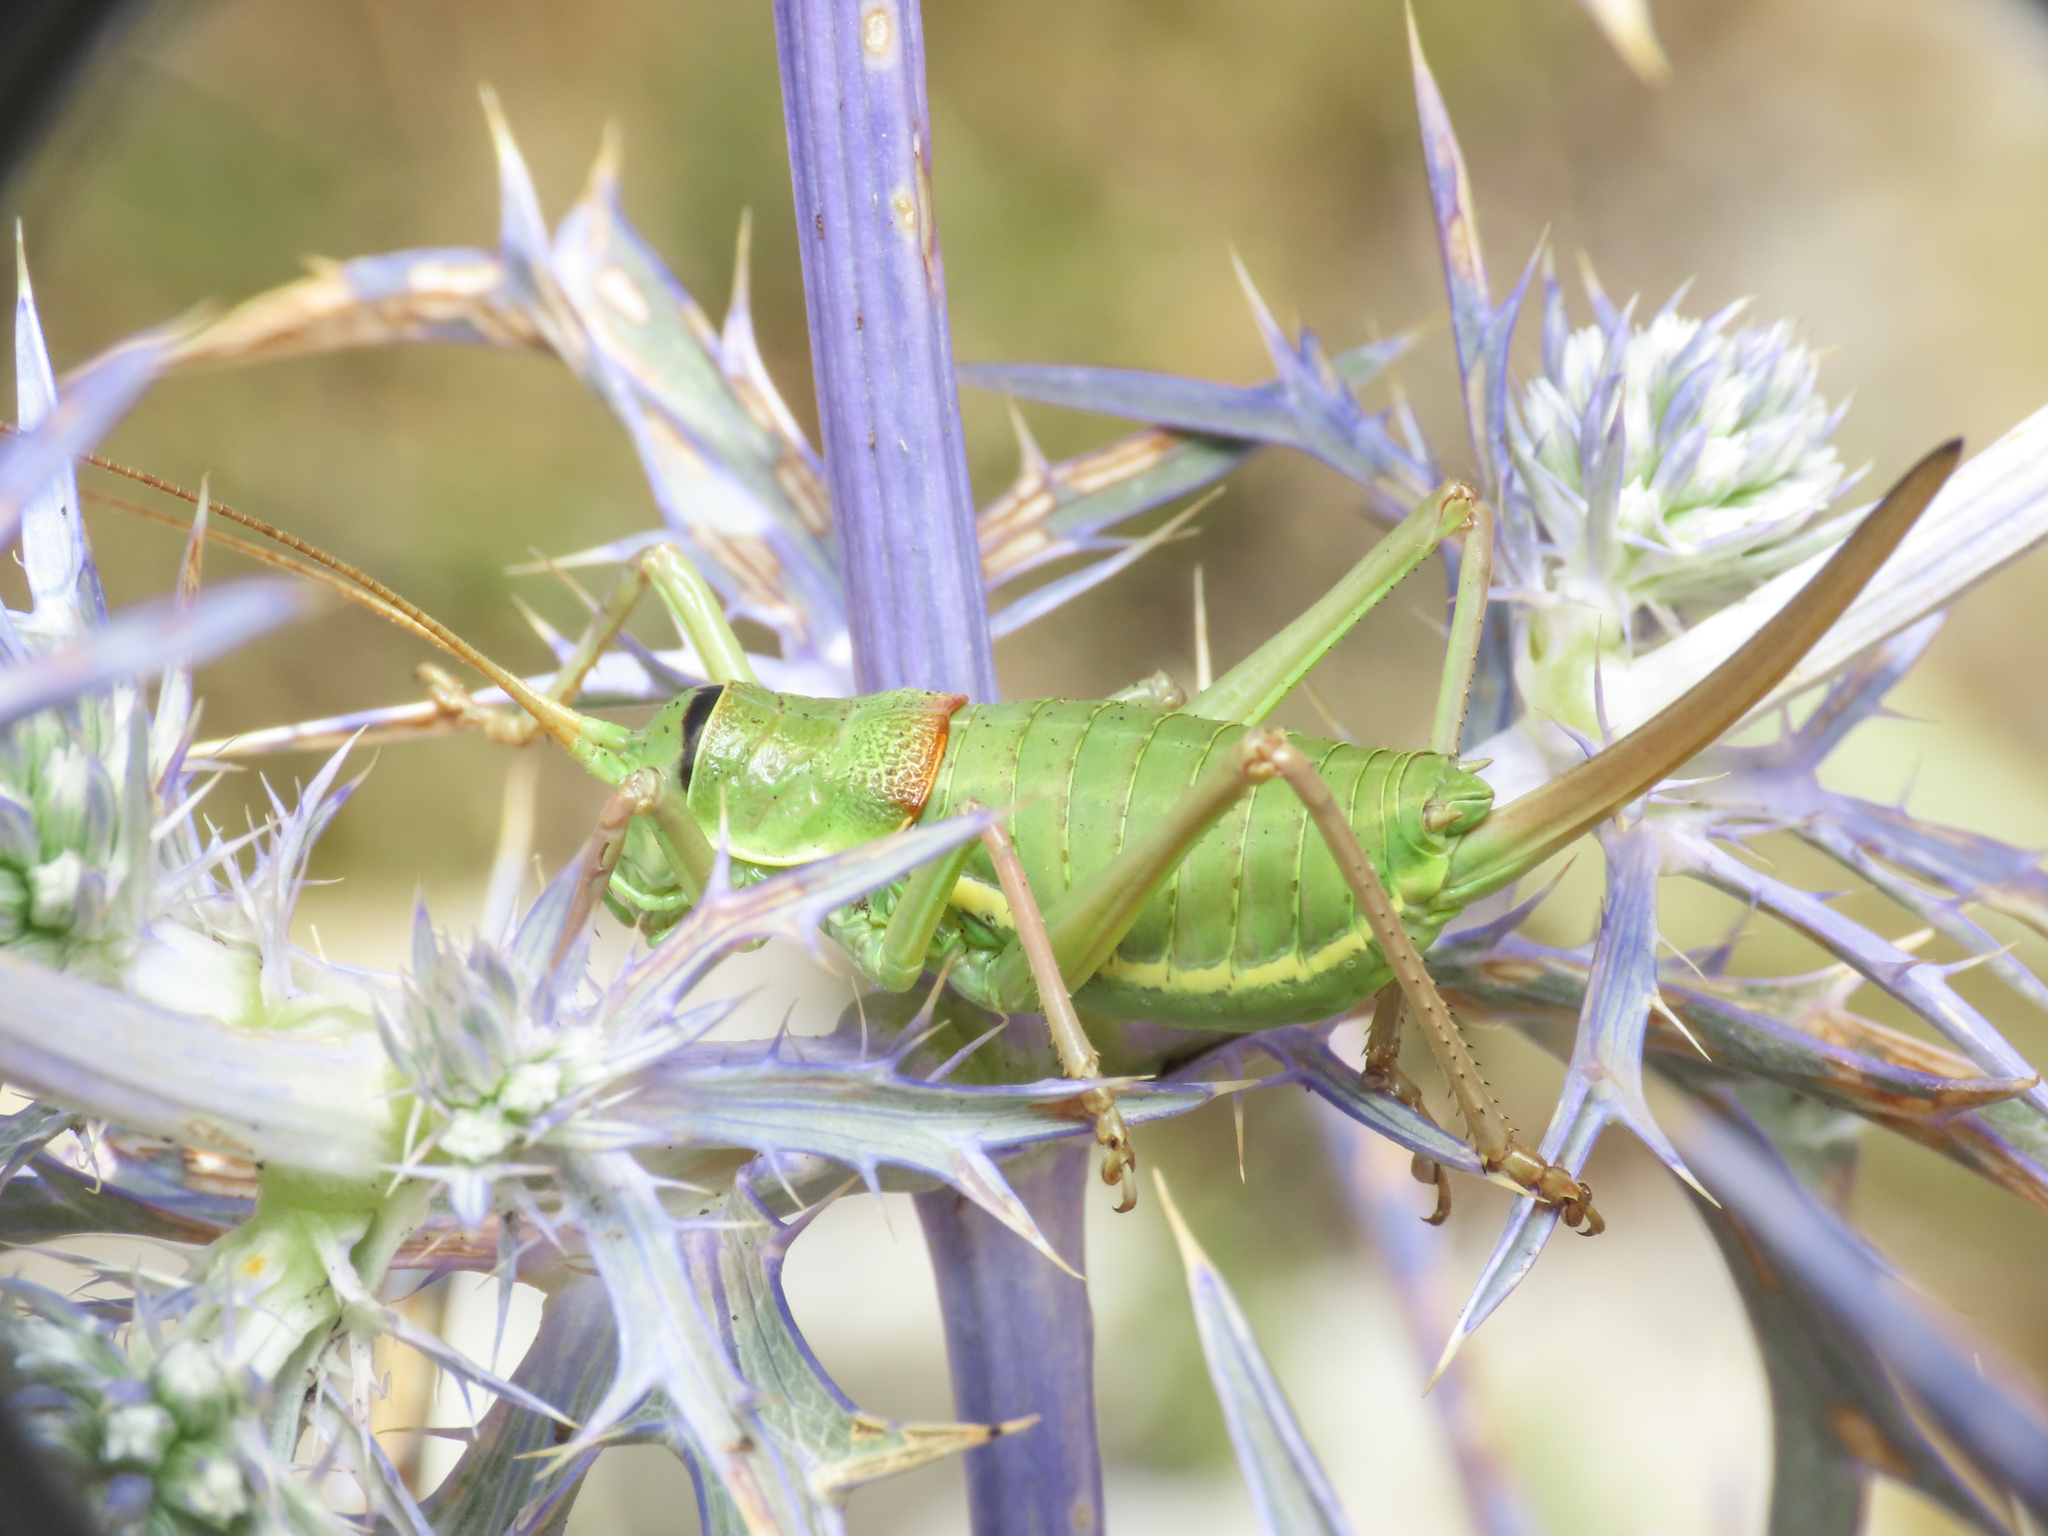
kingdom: Animalia
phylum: Arthropoda
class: Insecta
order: Orthoptera
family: Tettigoniidae
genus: Ephippiger
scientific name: Ephippiger melisi
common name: Abruzzo saddle bush-cricket
